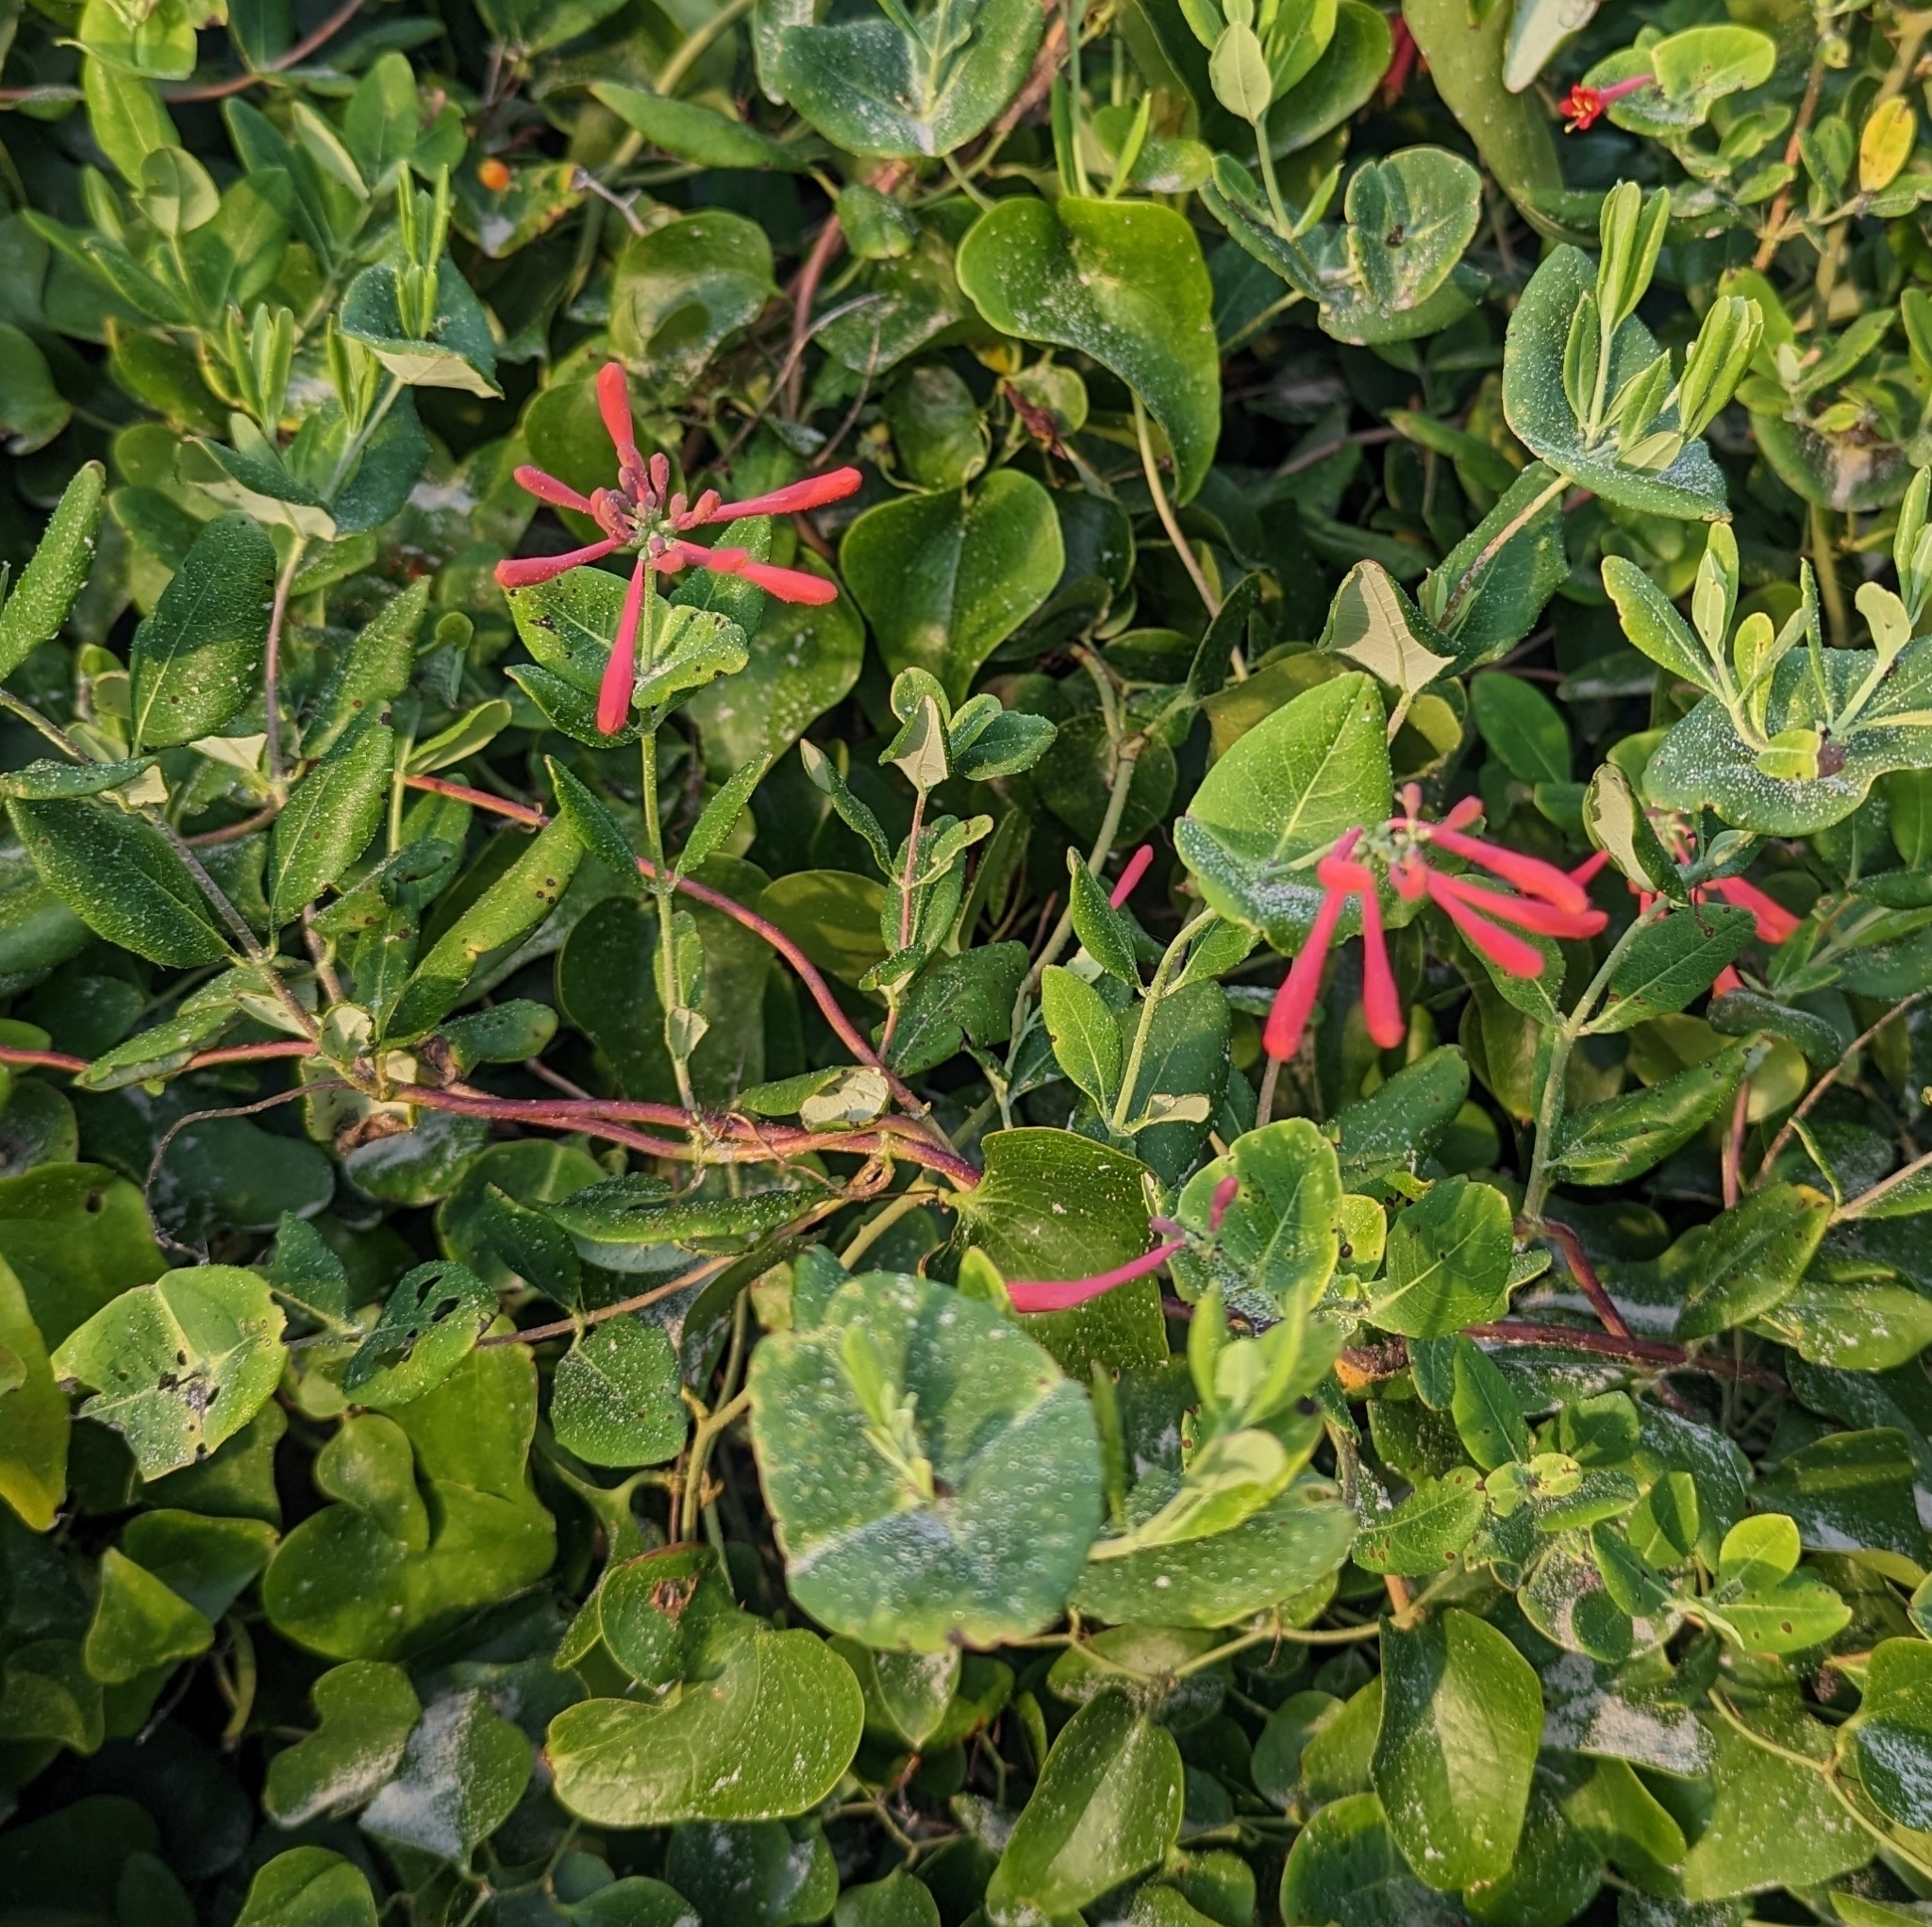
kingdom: Plantae
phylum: Tracheophyta
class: Magnoliopsida
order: Dipsacales
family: Caprifoliaceae
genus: Lonicera
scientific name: Lonicera sempervirens
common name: Coral honeysuckle
